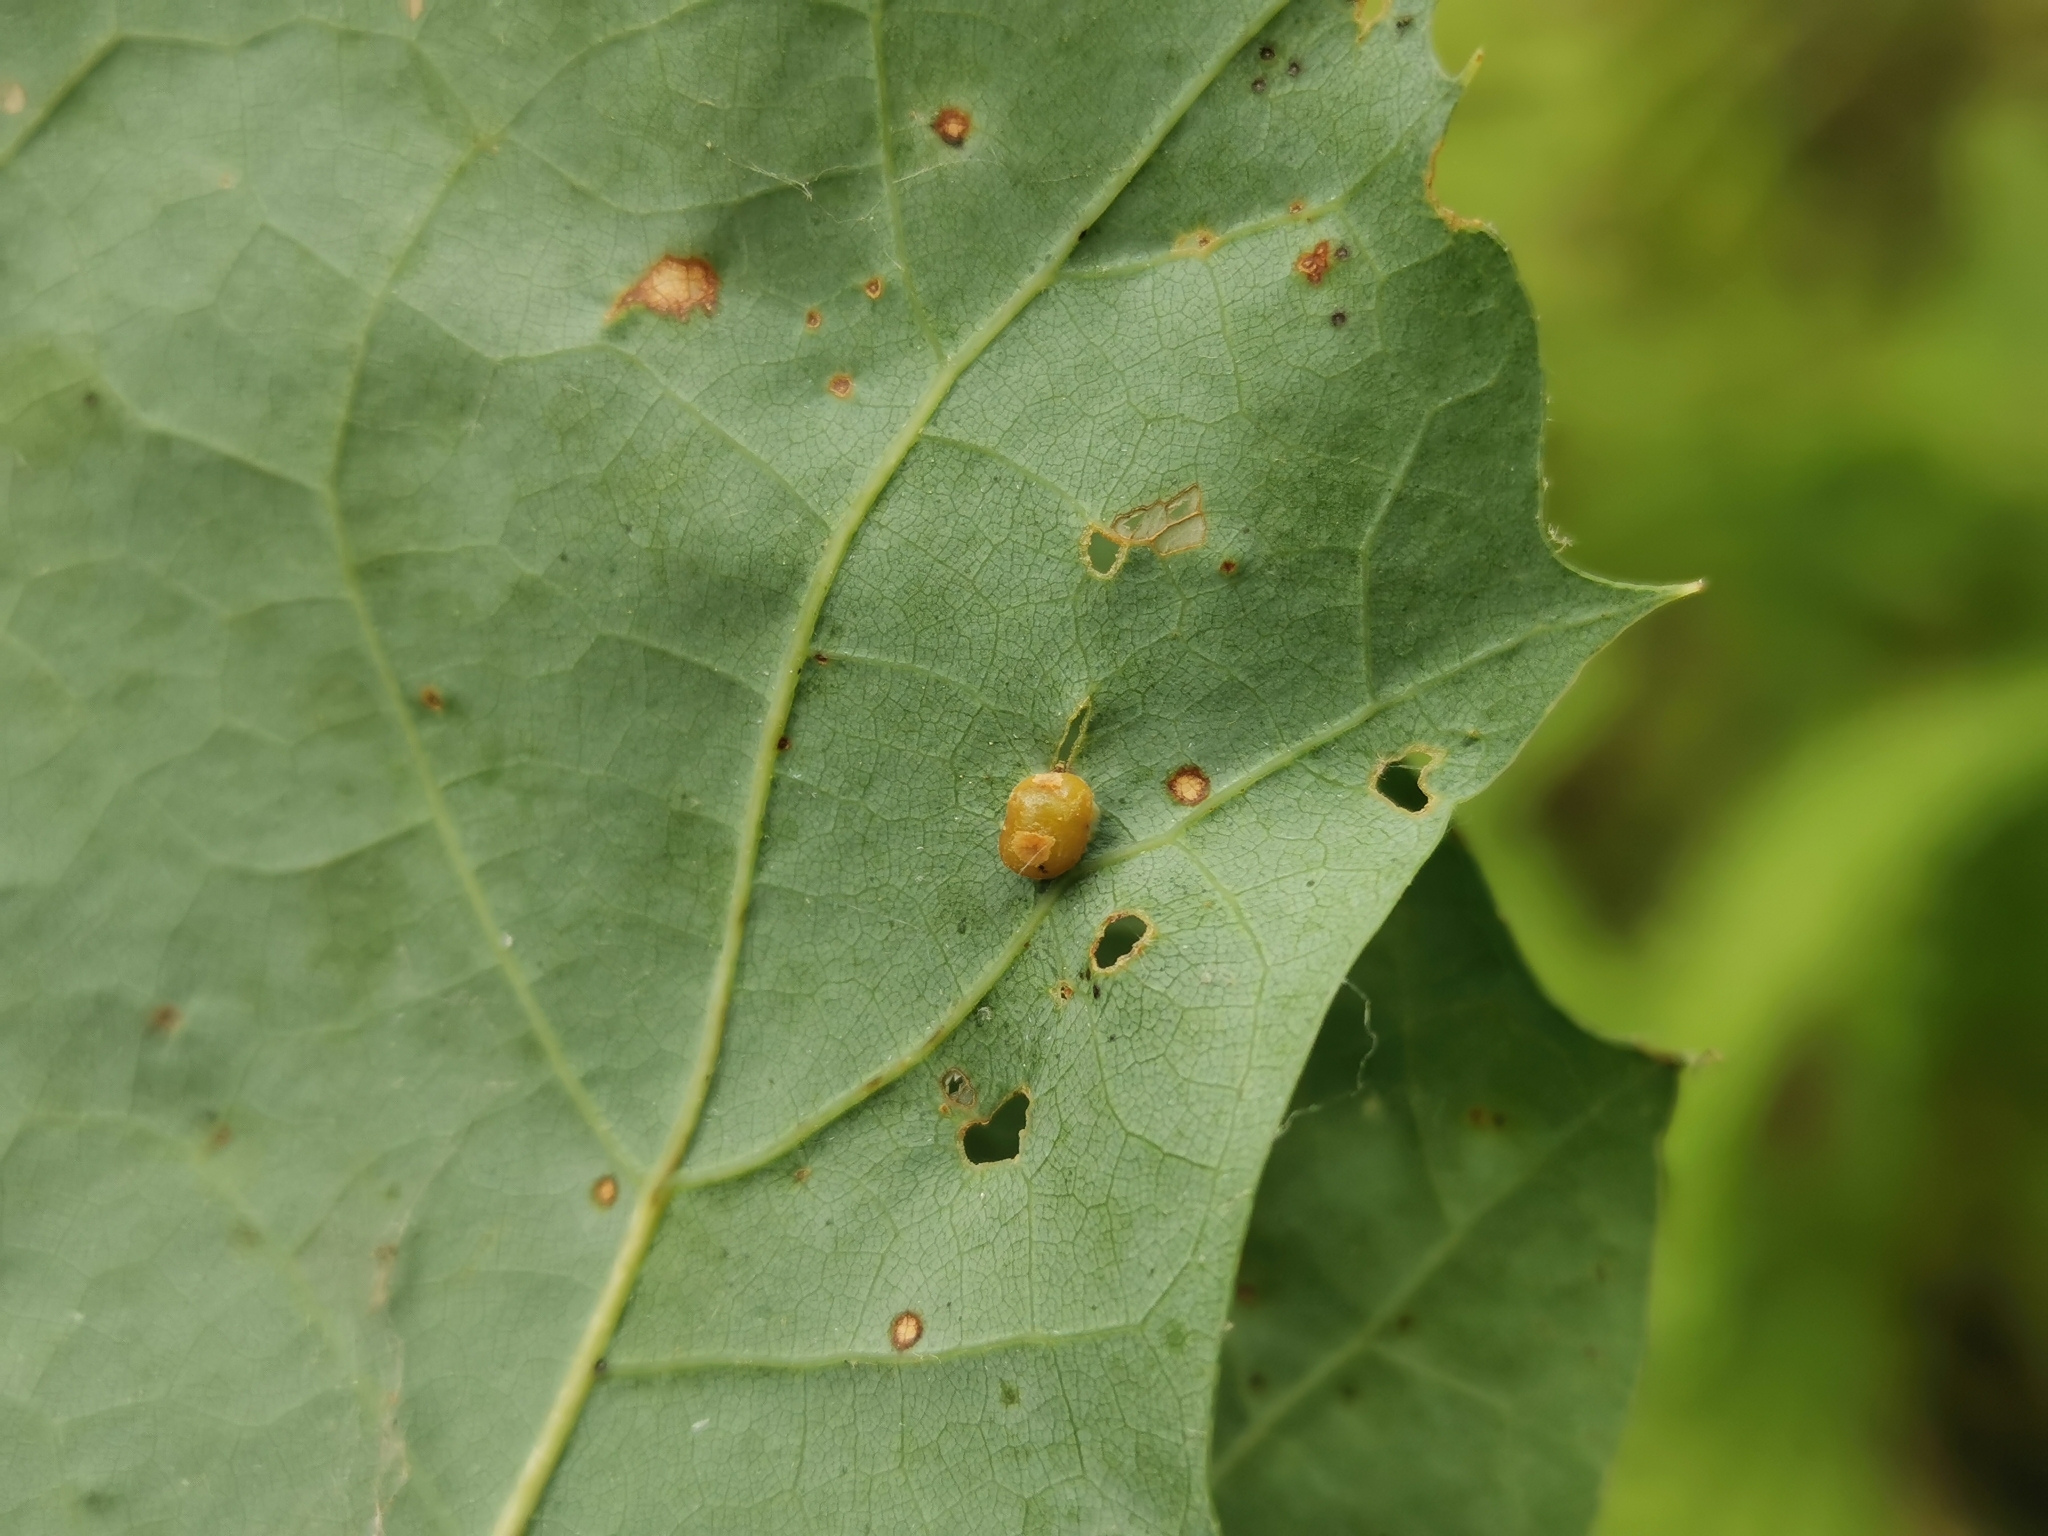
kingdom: Animalia
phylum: Arthropoda
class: Insecta
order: Diptera
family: Cecidomyiidae
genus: Polystepha
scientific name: Polystepha globosa
